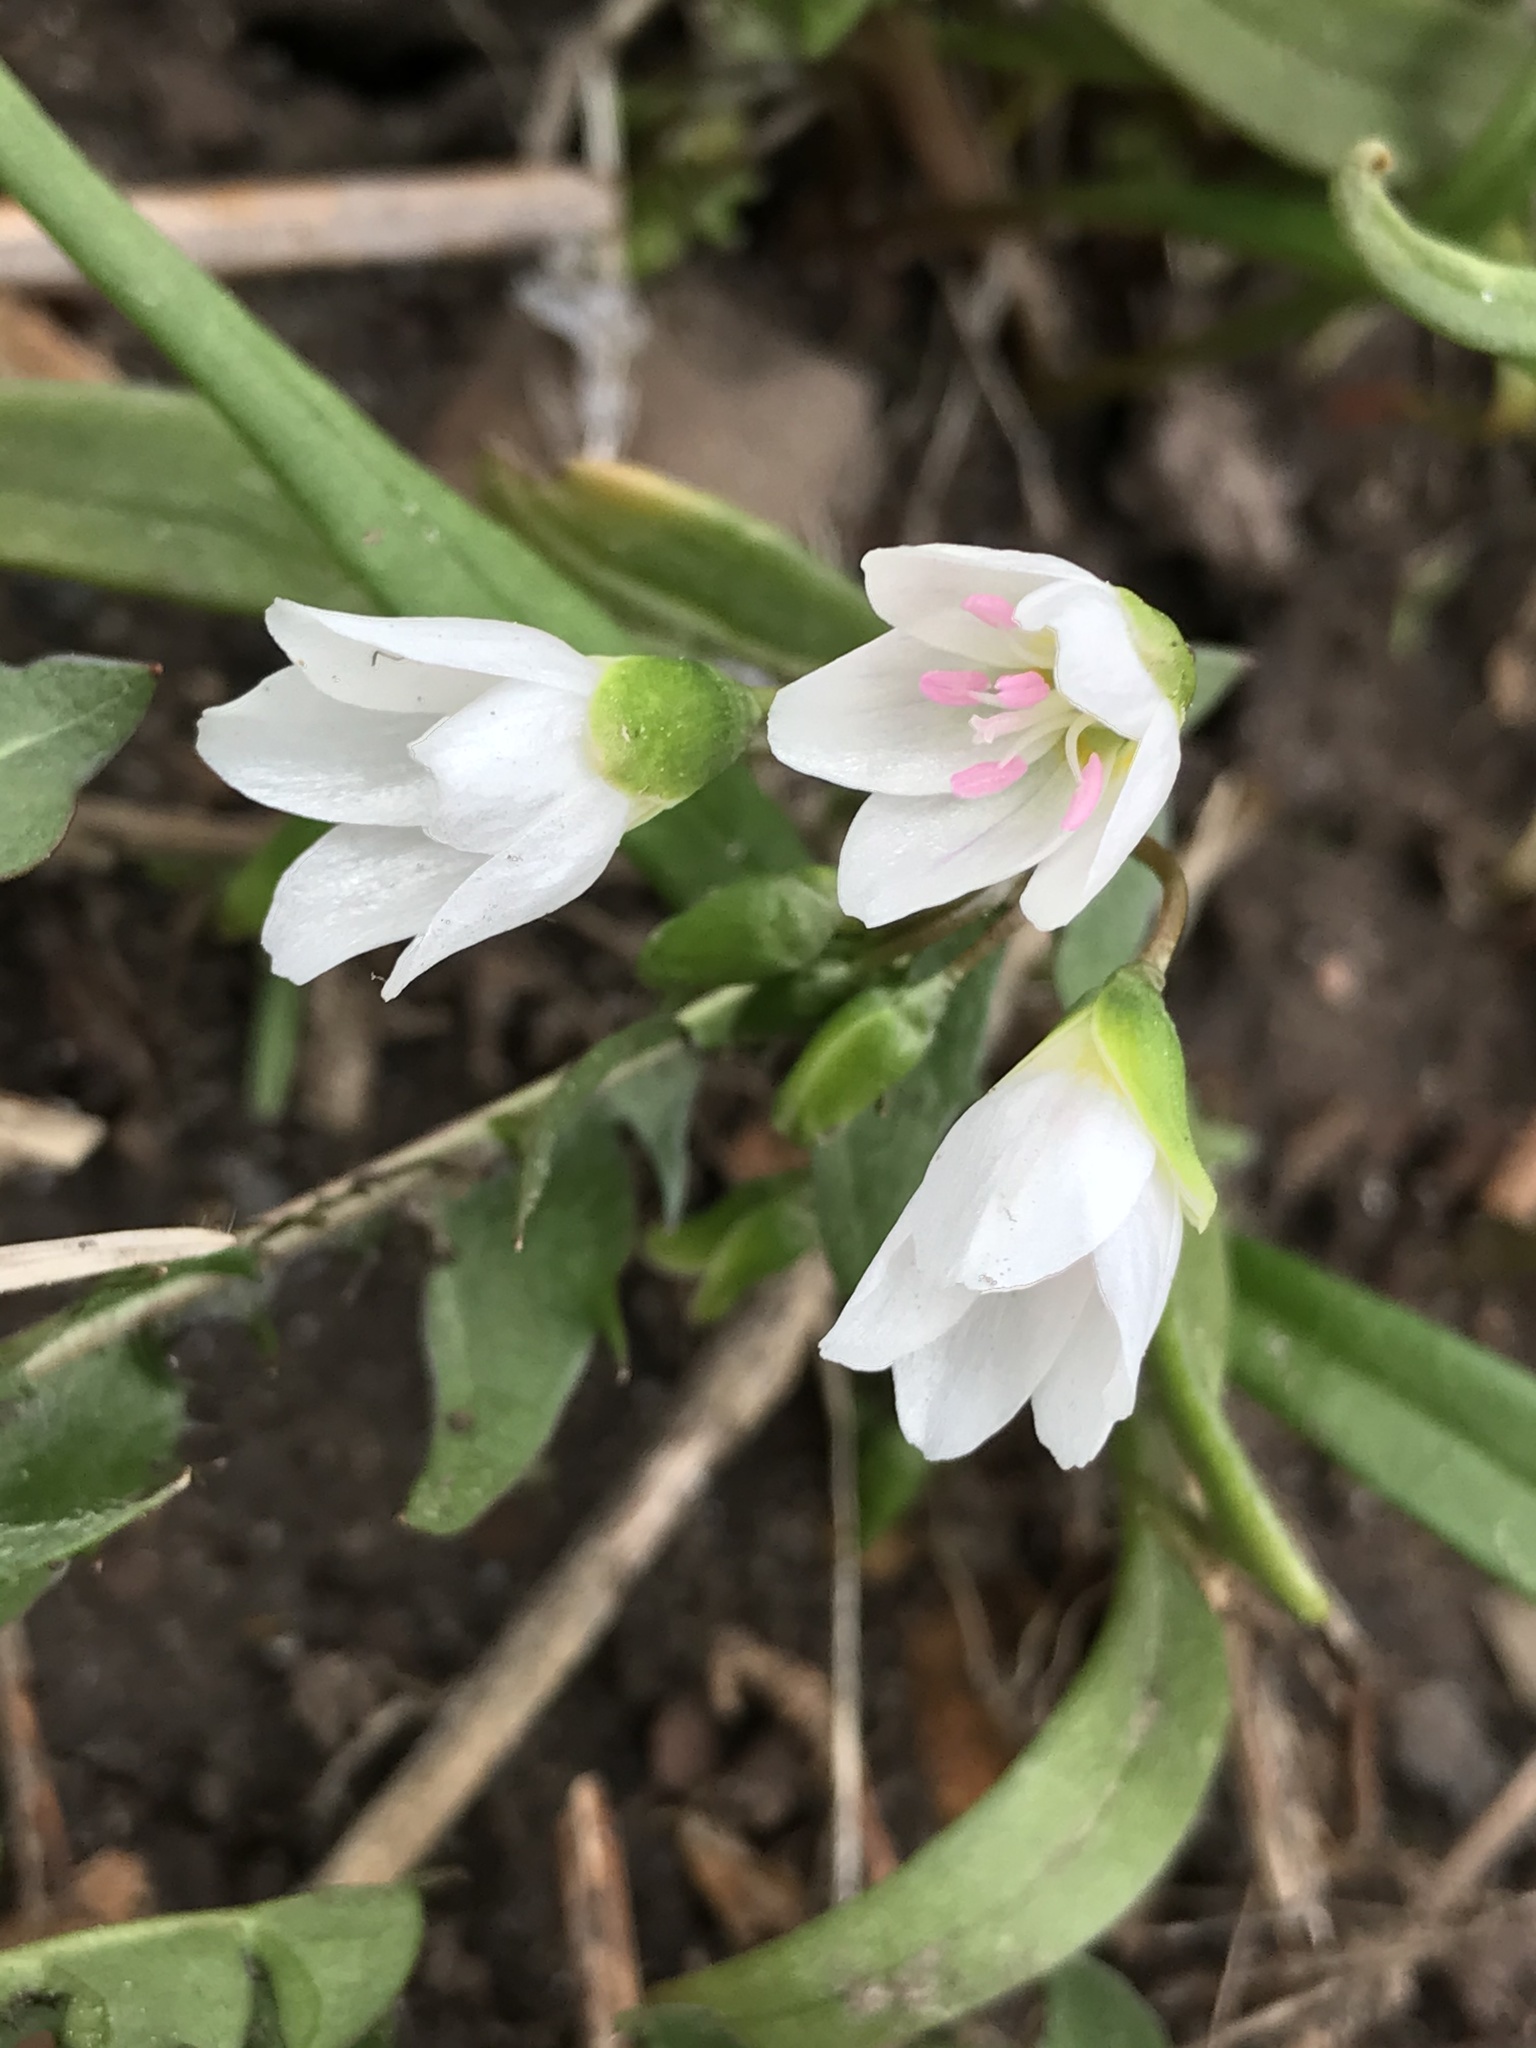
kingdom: Plantae
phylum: Tracheophyta
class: Magnoliopsida
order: Caryophyllales
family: Montiaceae
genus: Claytonia
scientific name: Claytonia virginica
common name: Virginia springbeauty
